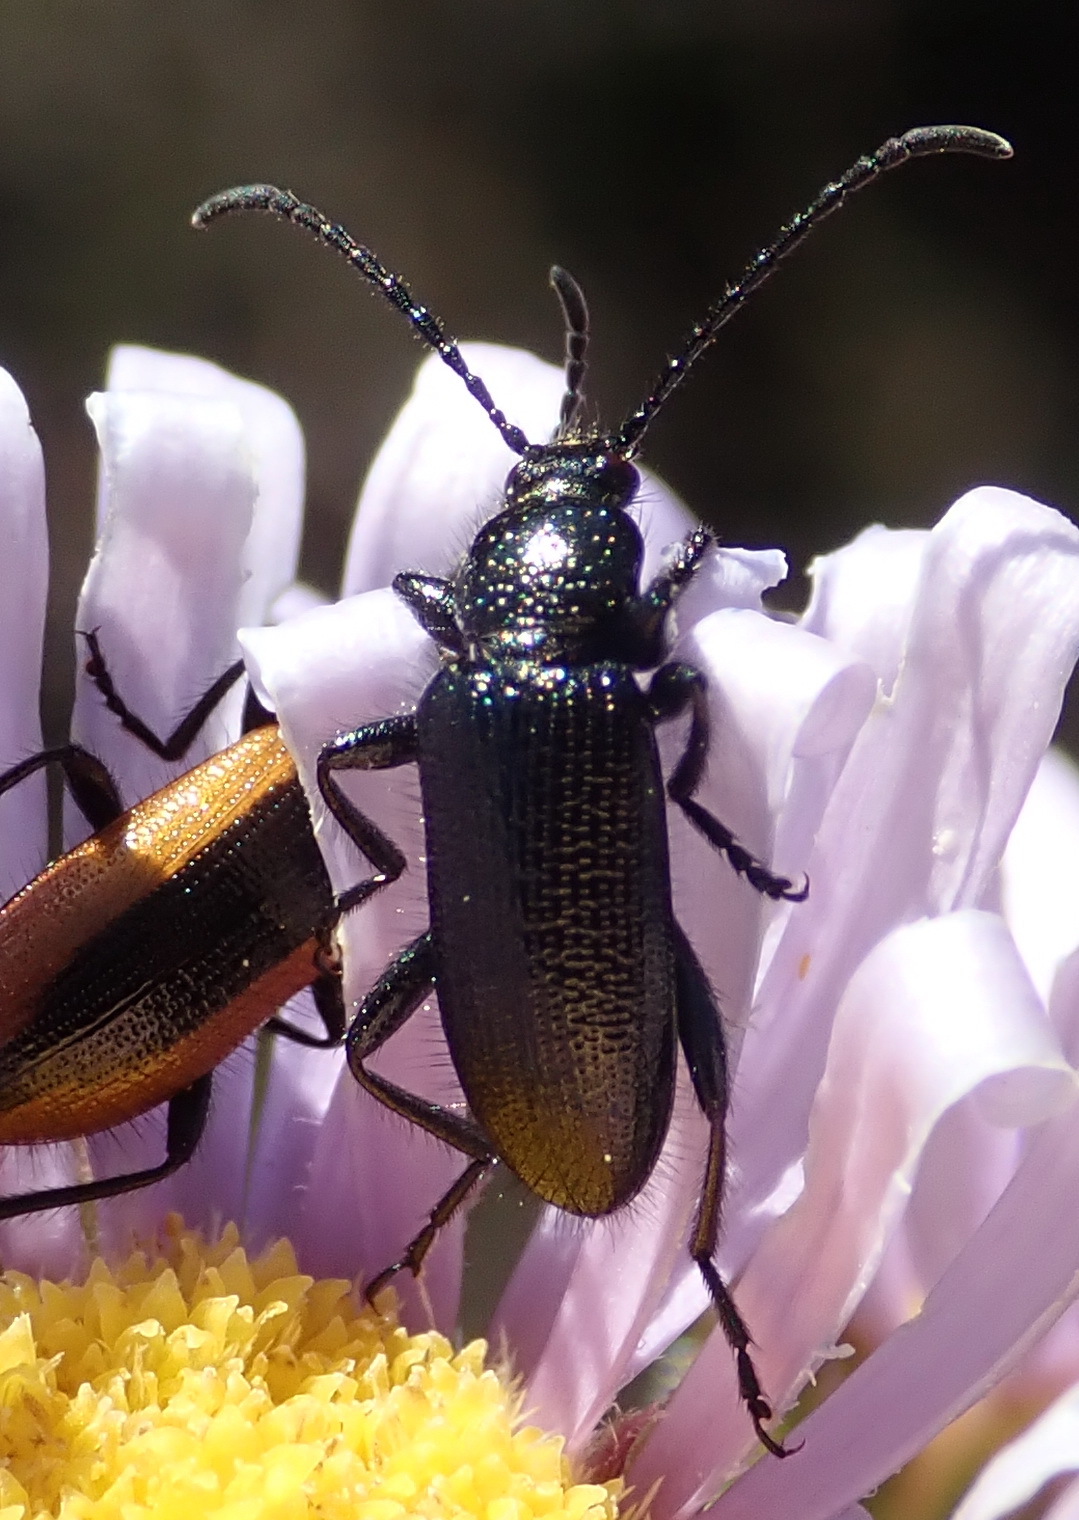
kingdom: Animalia
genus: Neoeutrapela
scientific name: Neoeutrapela
